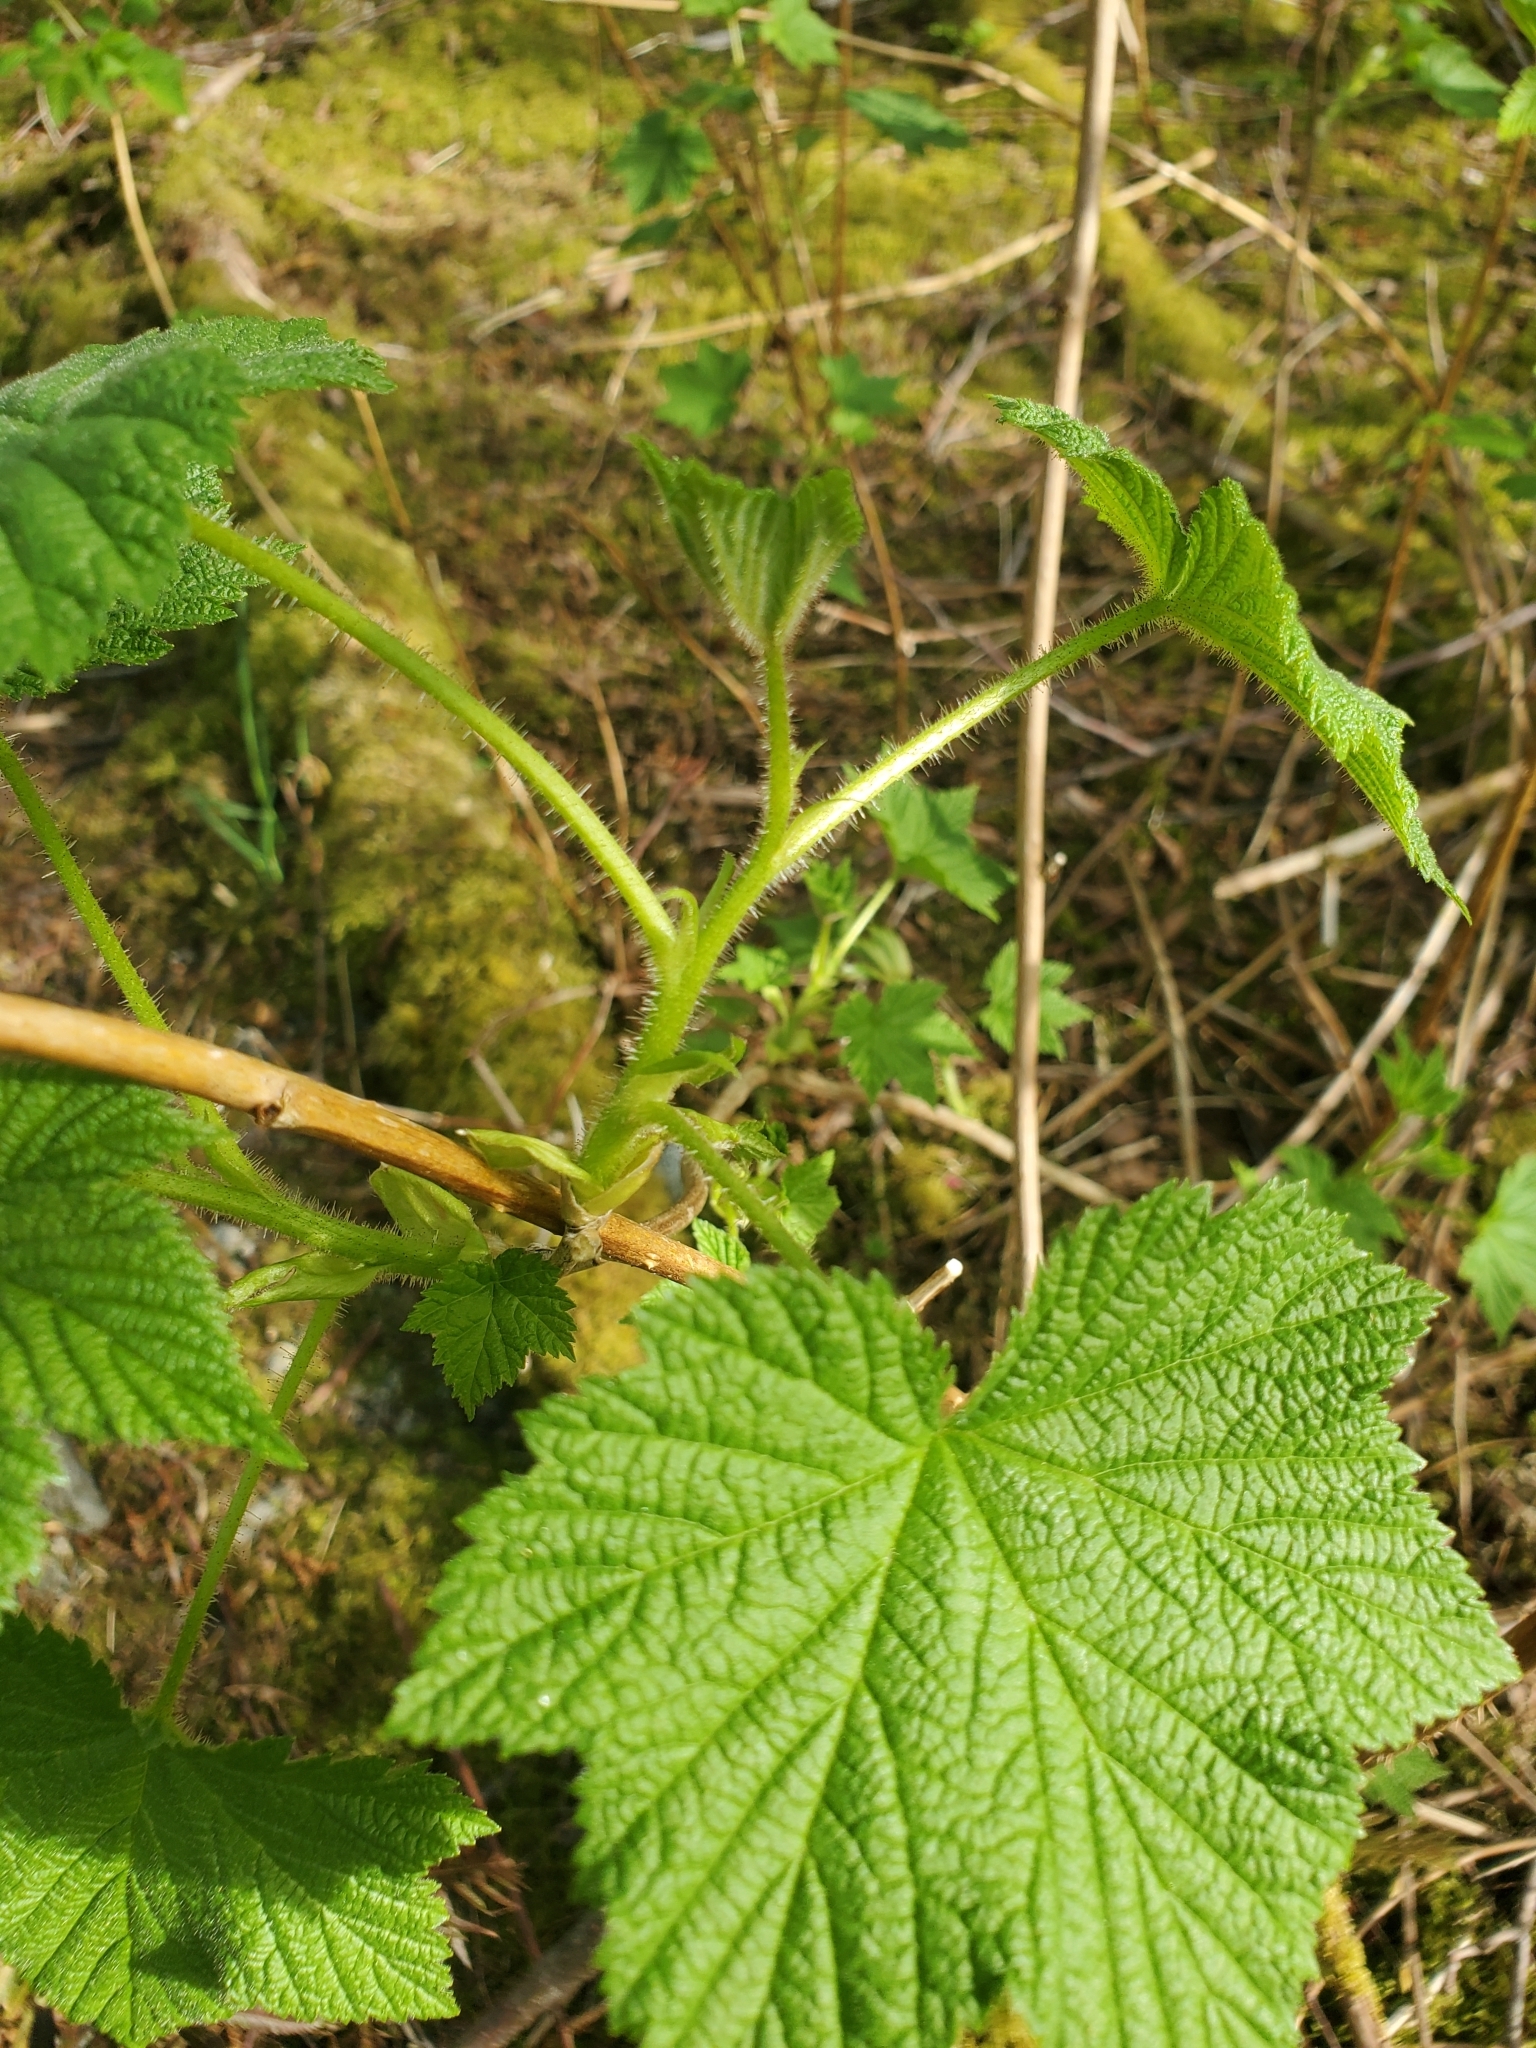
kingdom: Plantae
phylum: Tracheophyta
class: Magnoliopsida
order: Rosales
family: Rosaceae
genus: Rubus
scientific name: Rubus parviflorus
